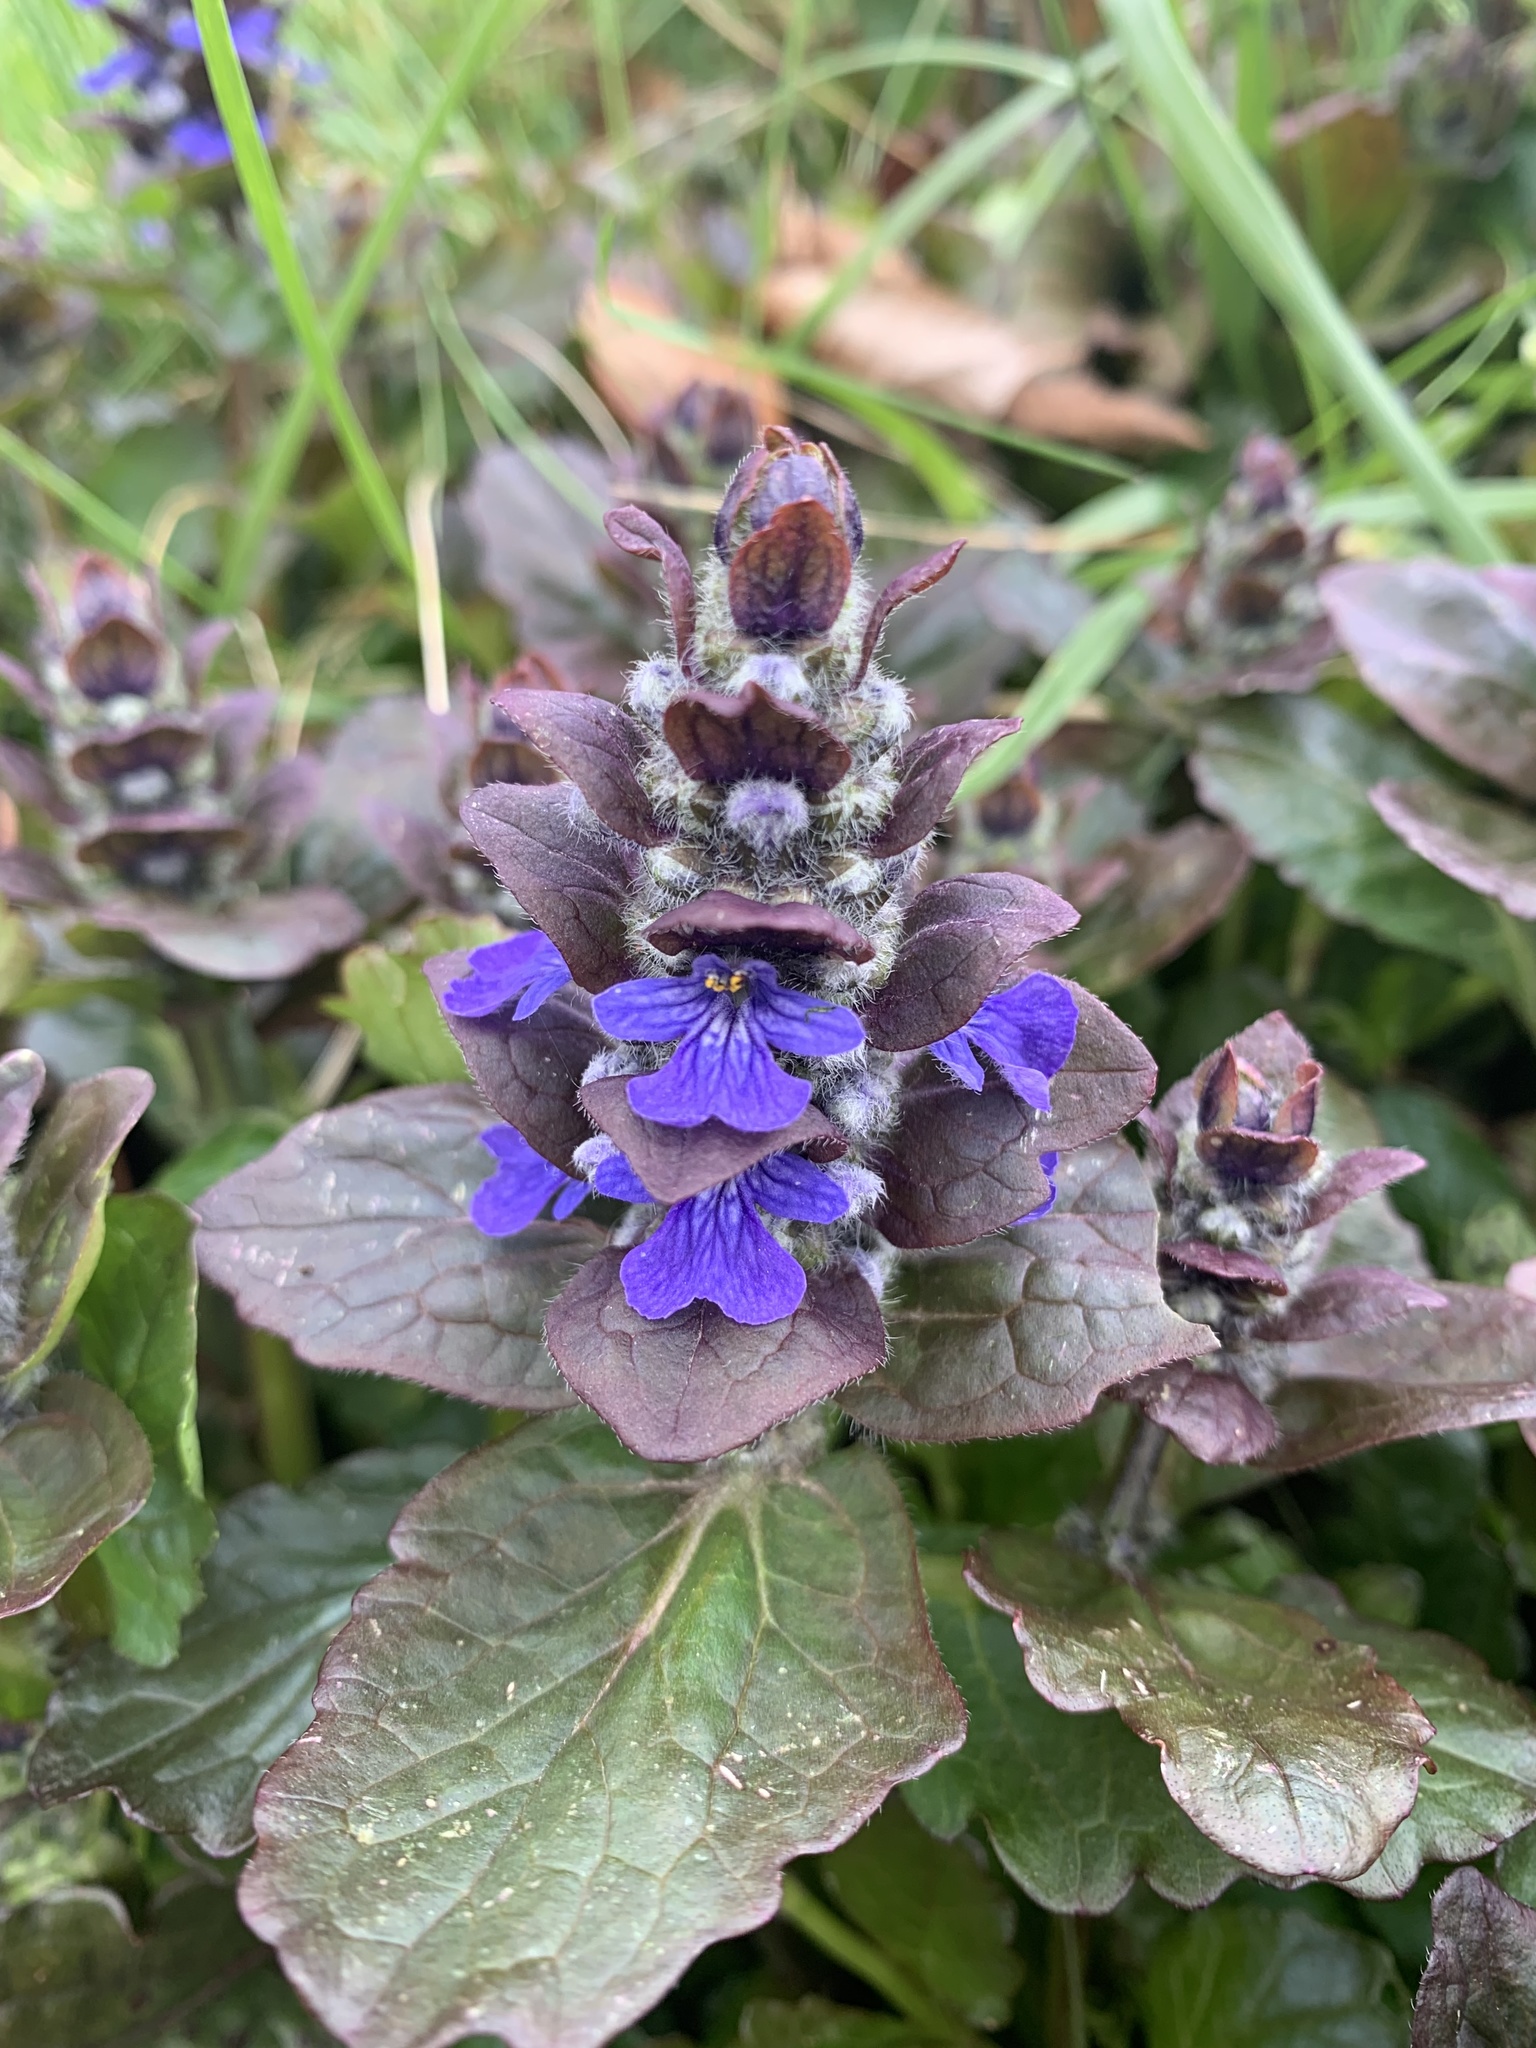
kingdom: Plantae
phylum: Tracheophyta
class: Magnoliopsida
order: Lamiales
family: Lamiaceae
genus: Ajuga
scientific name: Ajuga reptans
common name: Bugle
